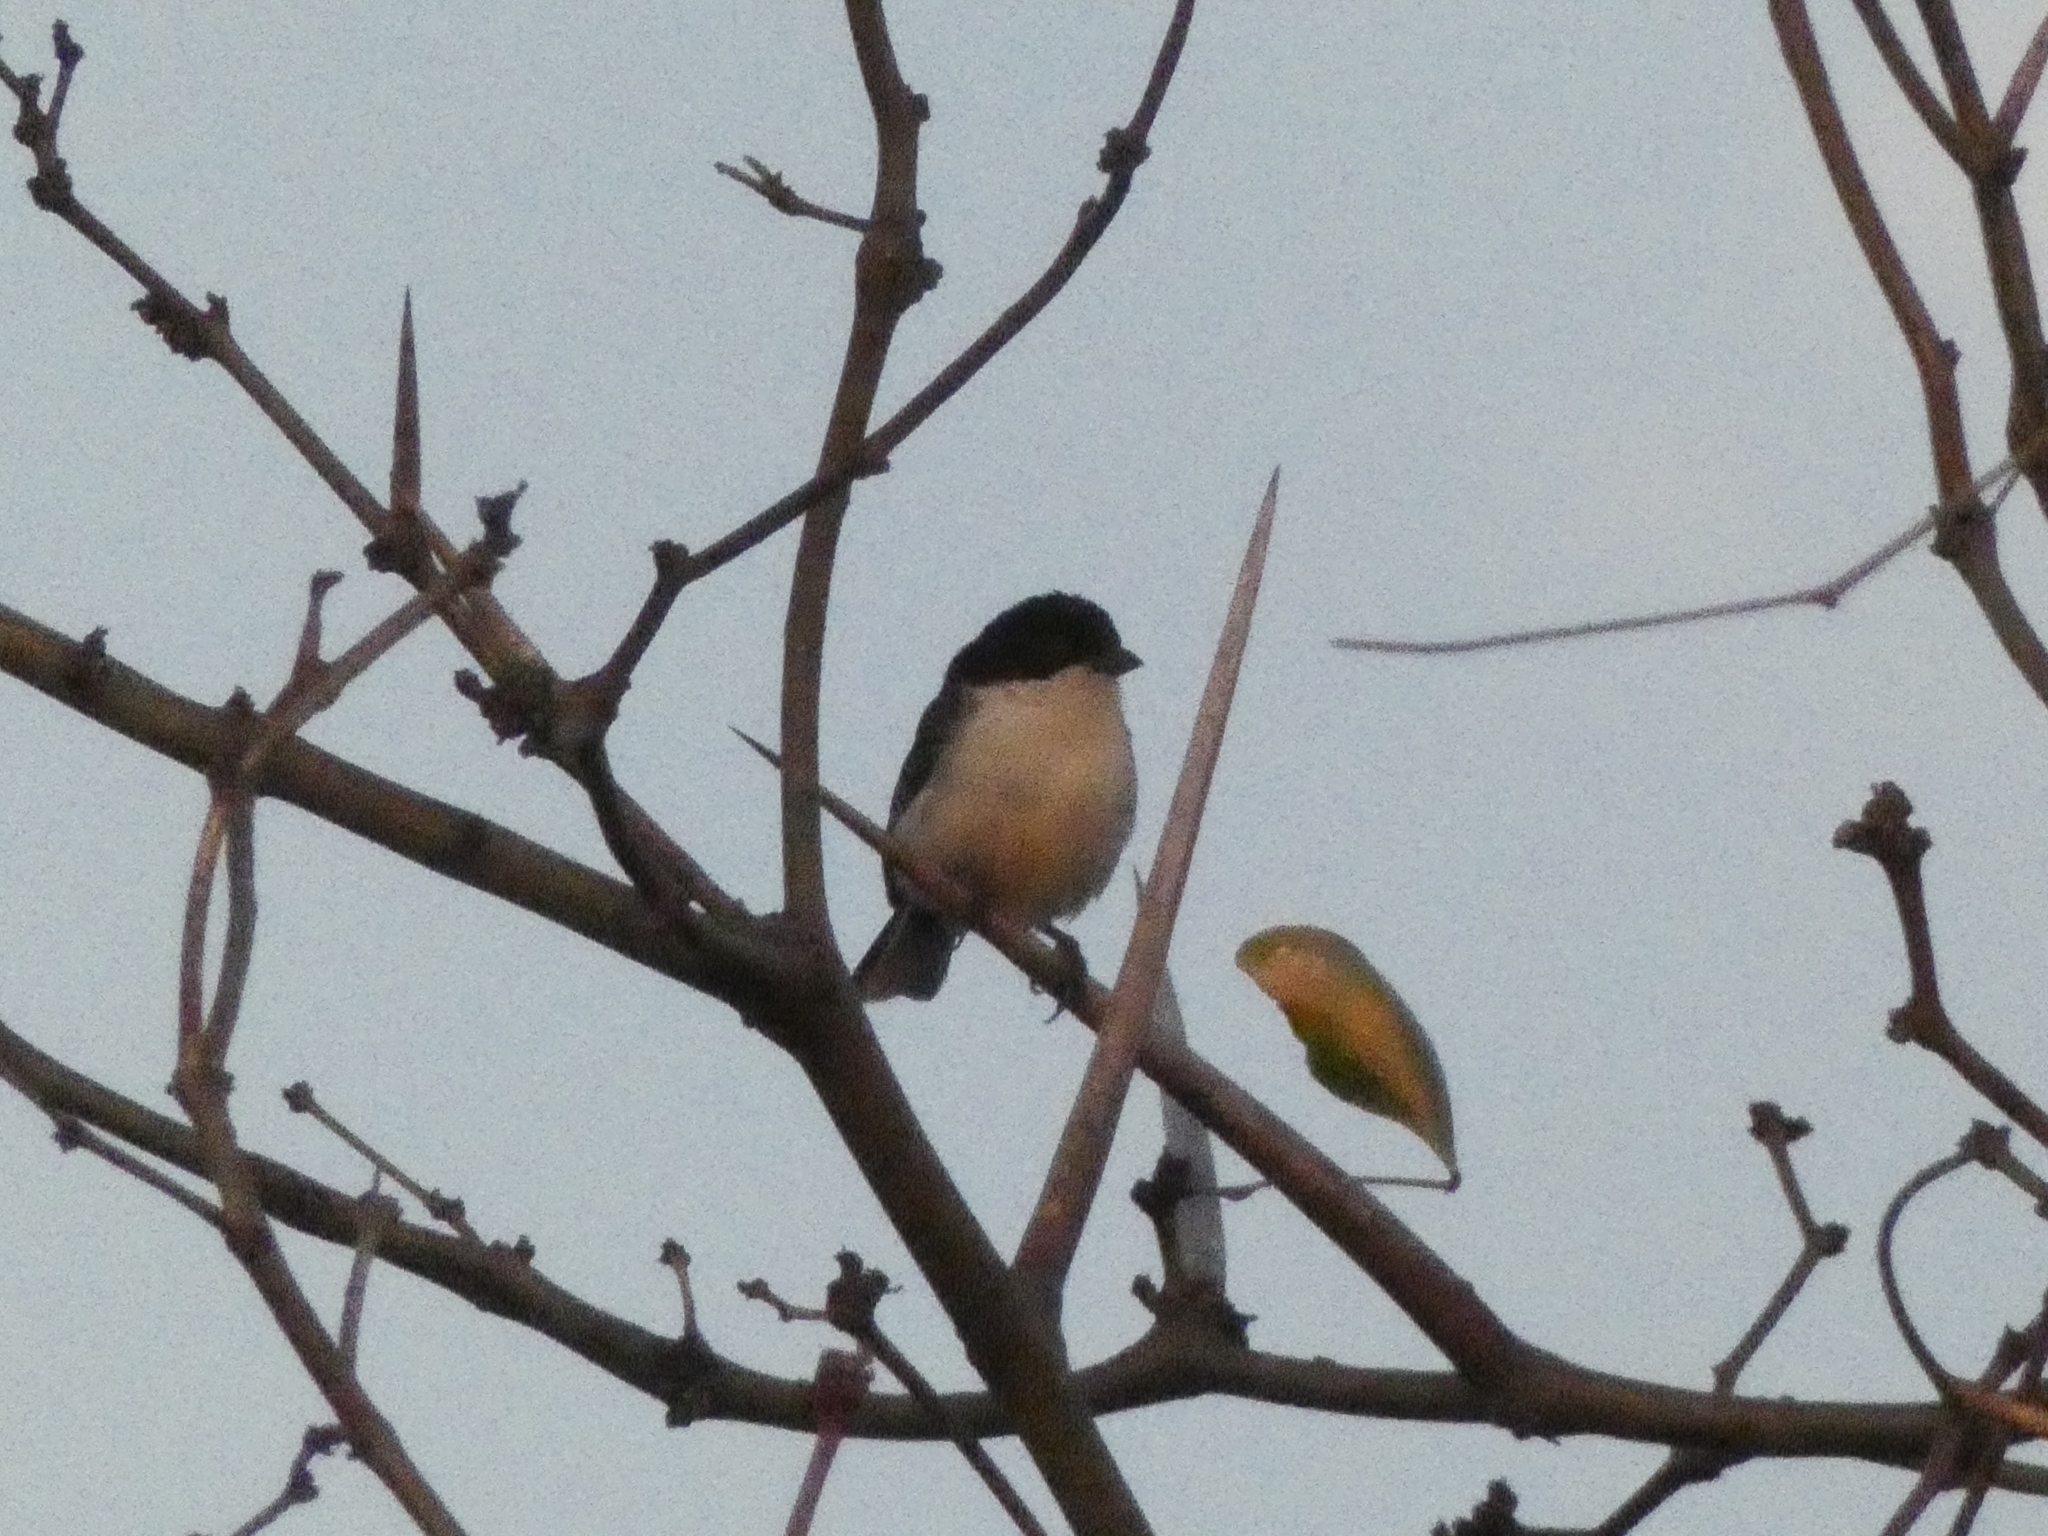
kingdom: Animalia
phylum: Chordata
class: Aves
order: Passeriformes
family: Thraupidae
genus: Microspingus
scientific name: Microspingus melanoleucus
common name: Black-capped warbling-finch
